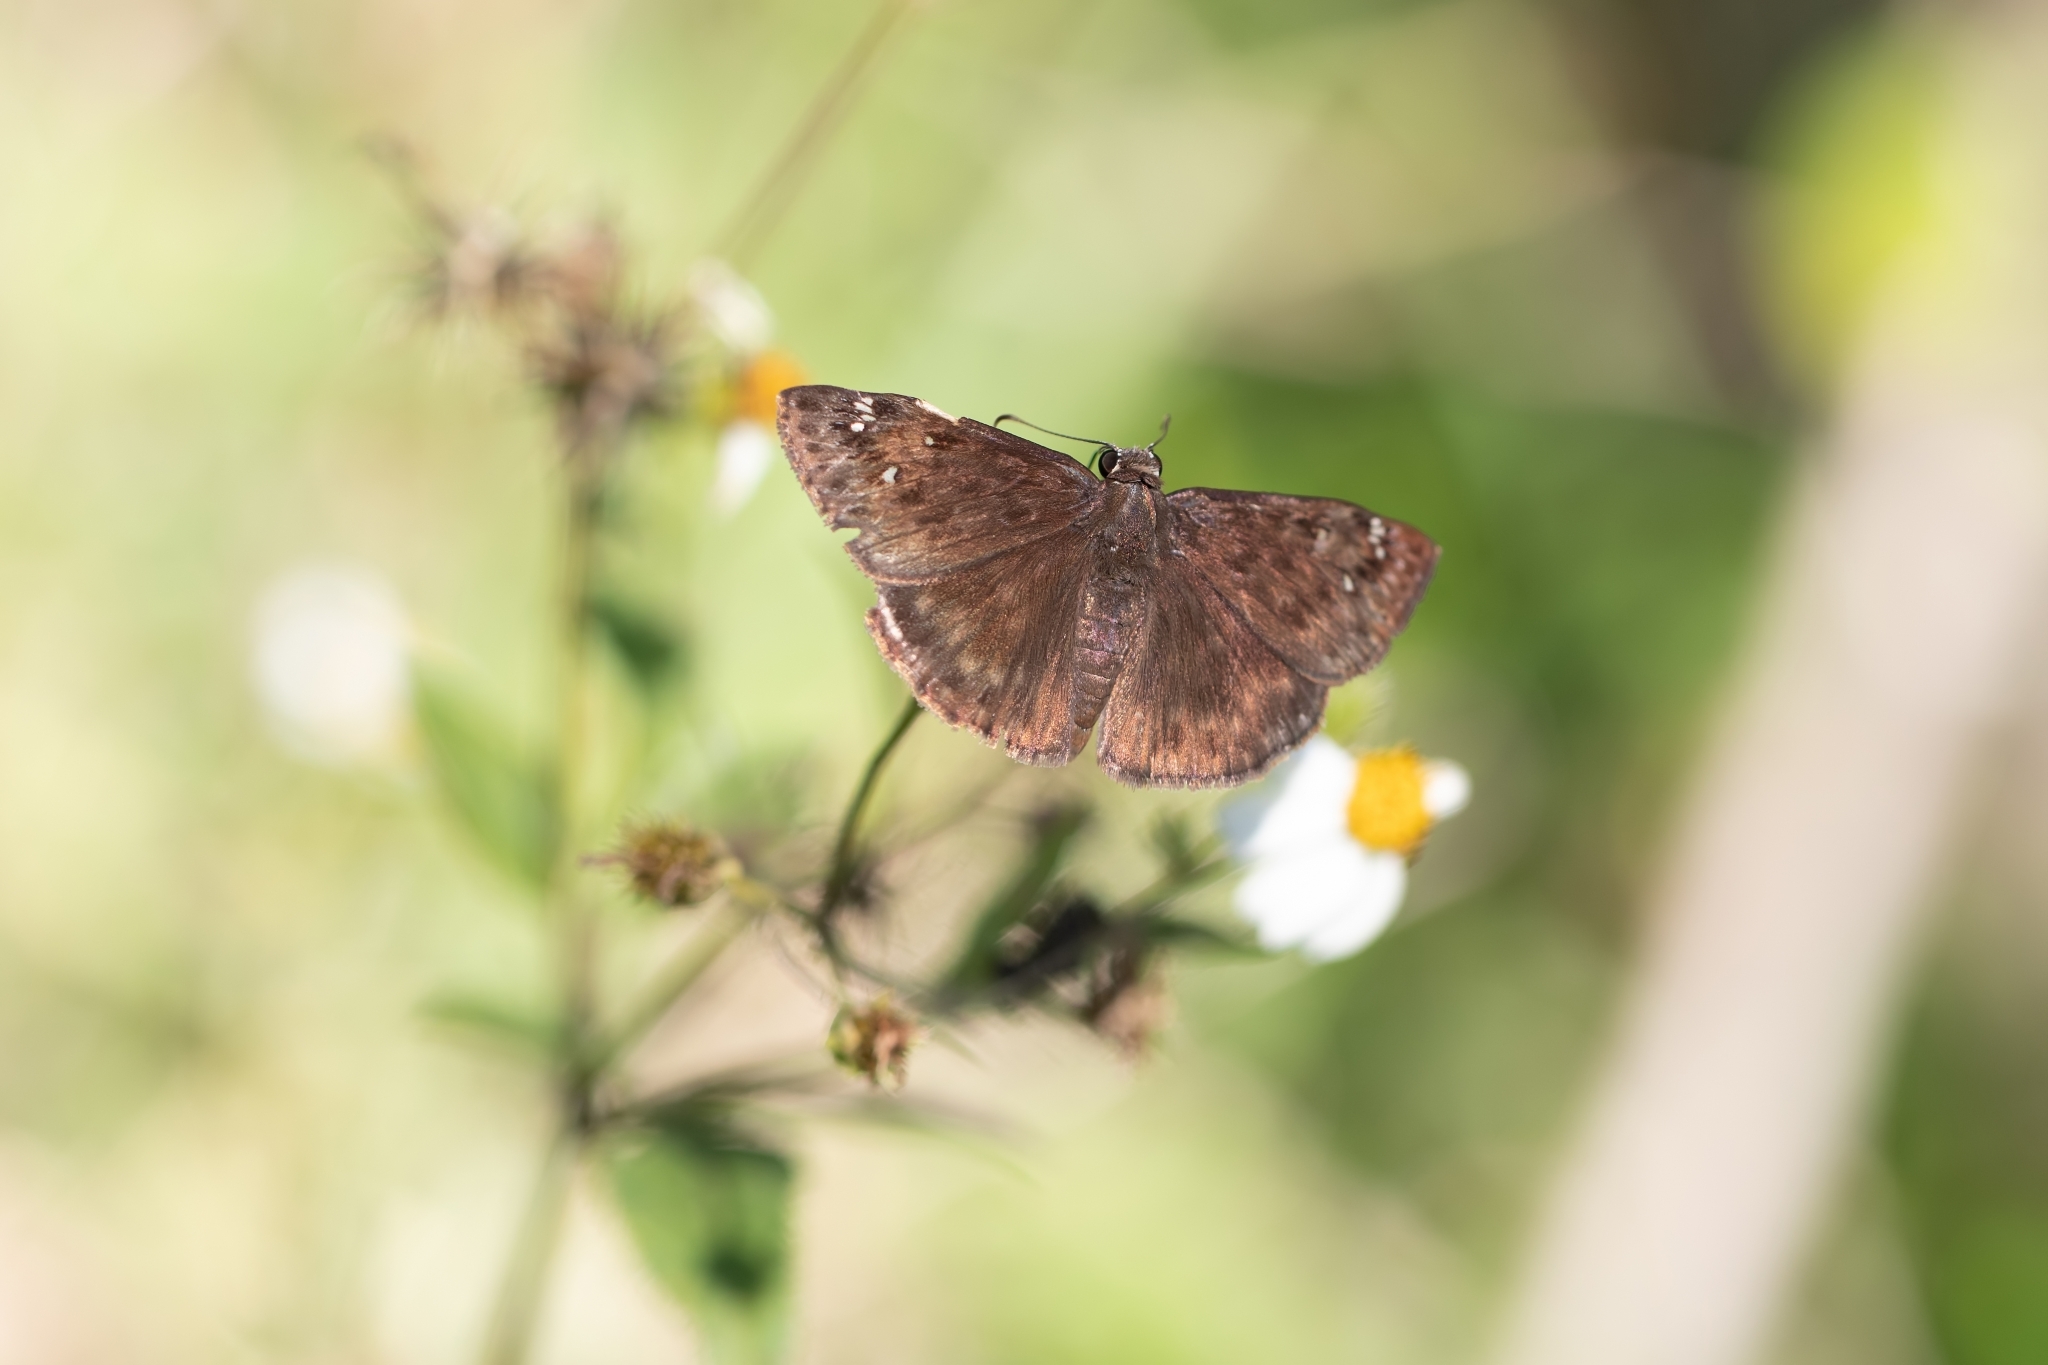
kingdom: Animalia
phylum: Arthropoda
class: Insecta
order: Lepidoptera
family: Hesperiidae
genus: Erynnis
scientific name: Erynnis horatius
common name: Horace's duskywing
